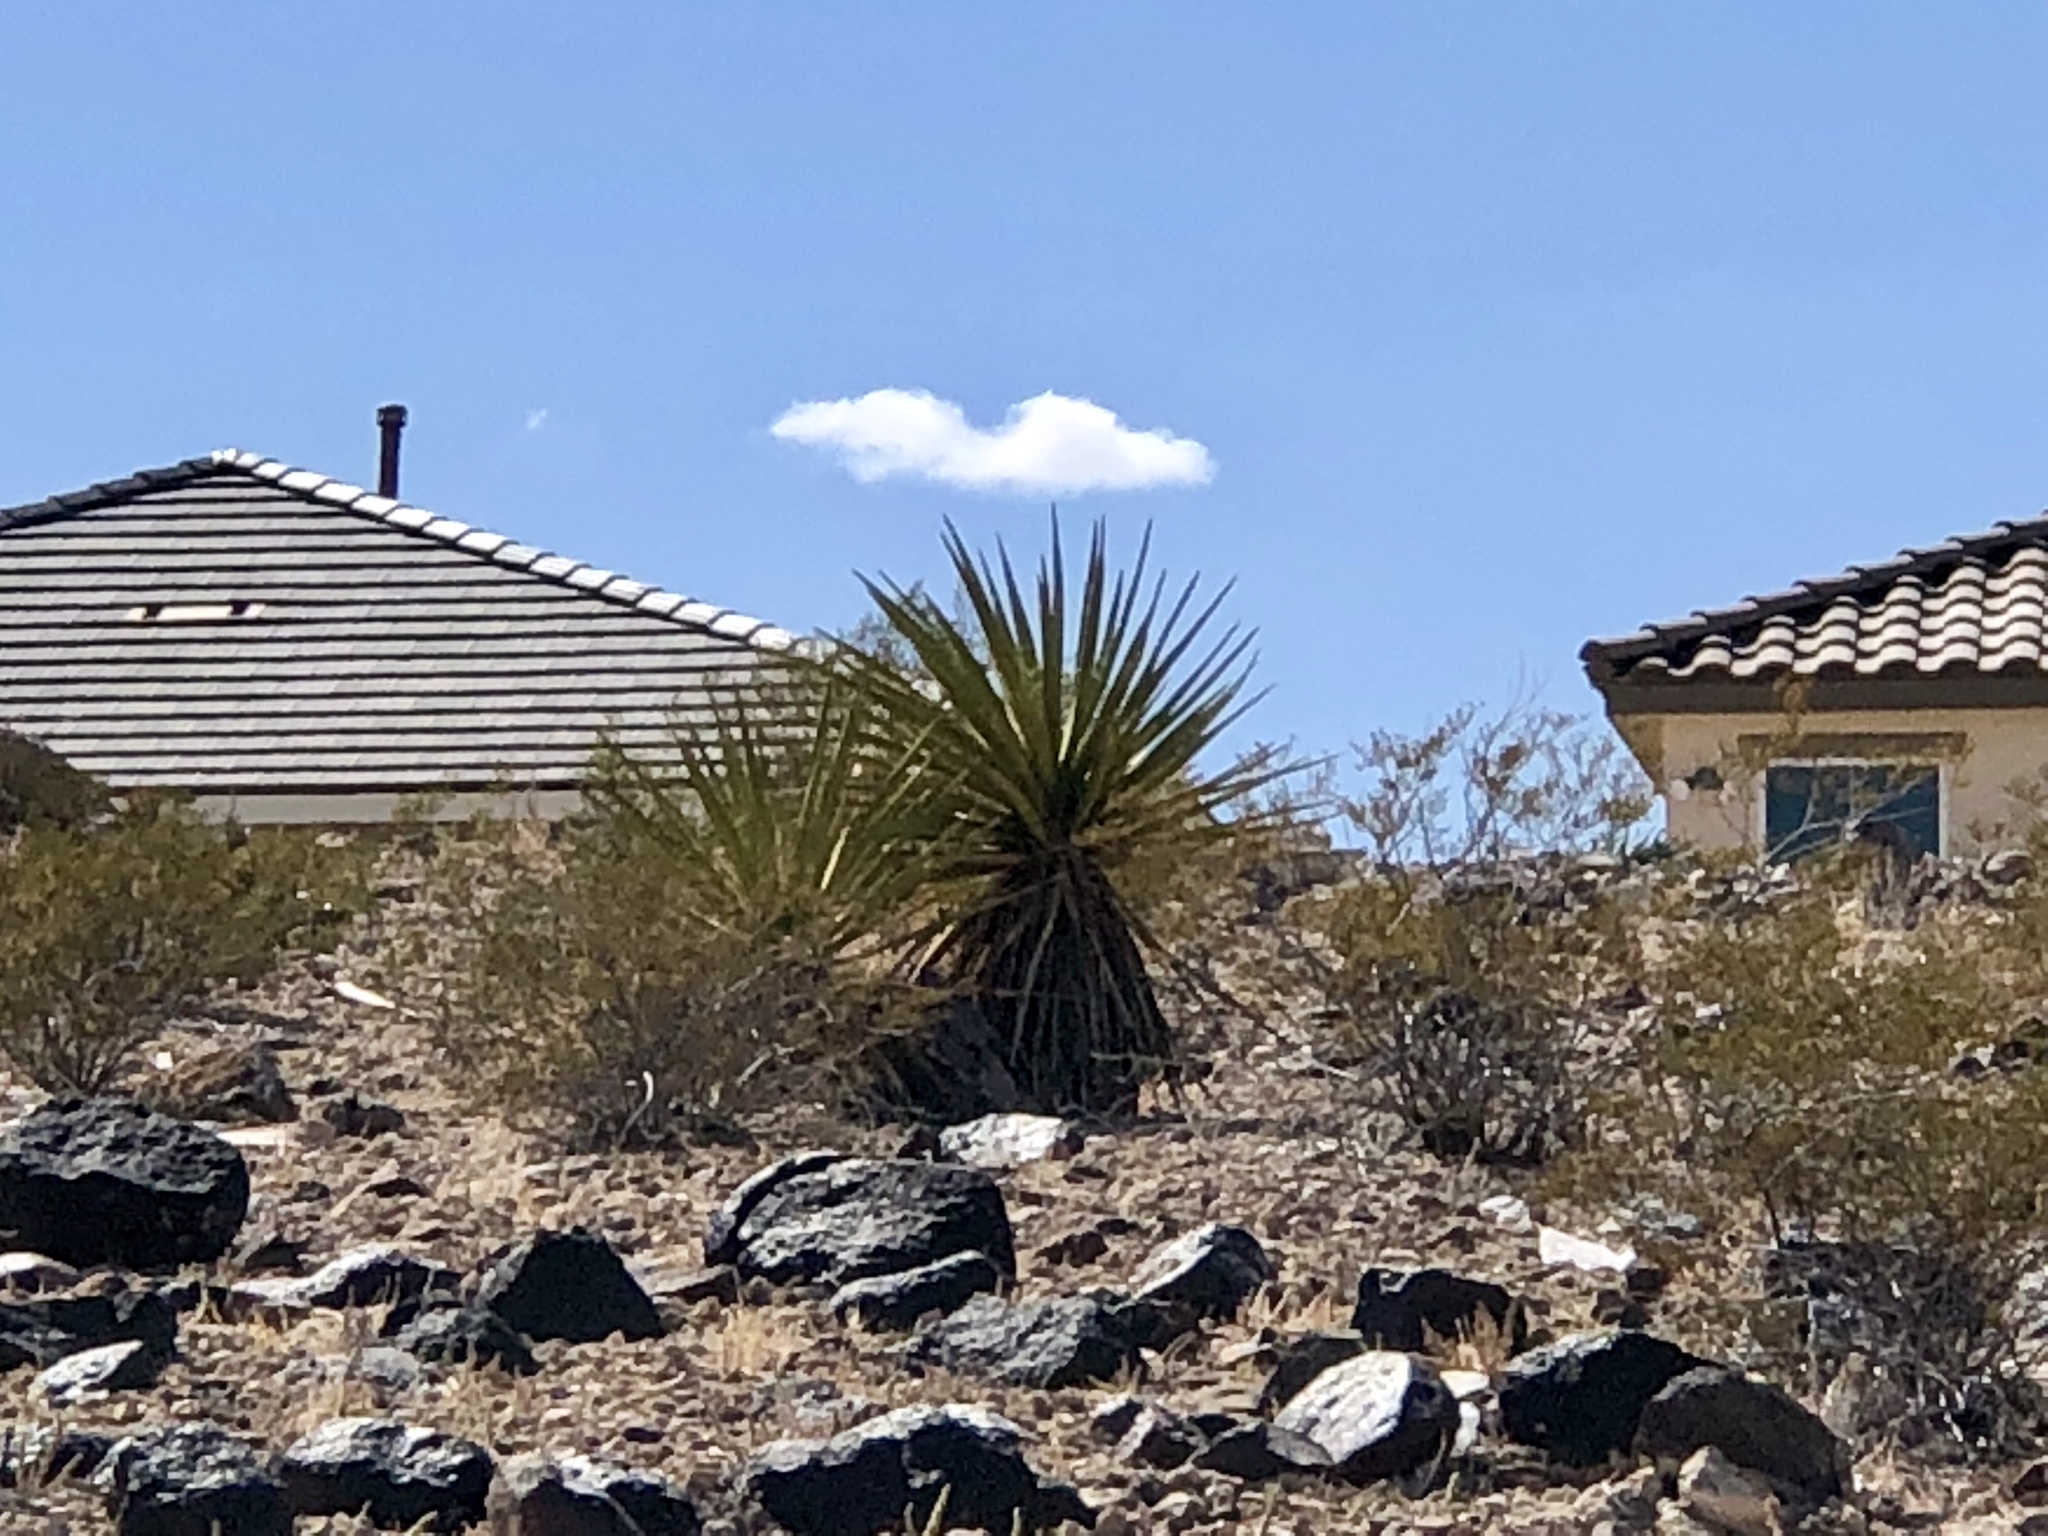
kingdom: Plantae
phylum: Tracheophyta
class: Liliopsida
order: Asparagales
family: Asparagaceae
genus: Yucca
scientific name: Yucca schidigera
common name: Mojave yucca
